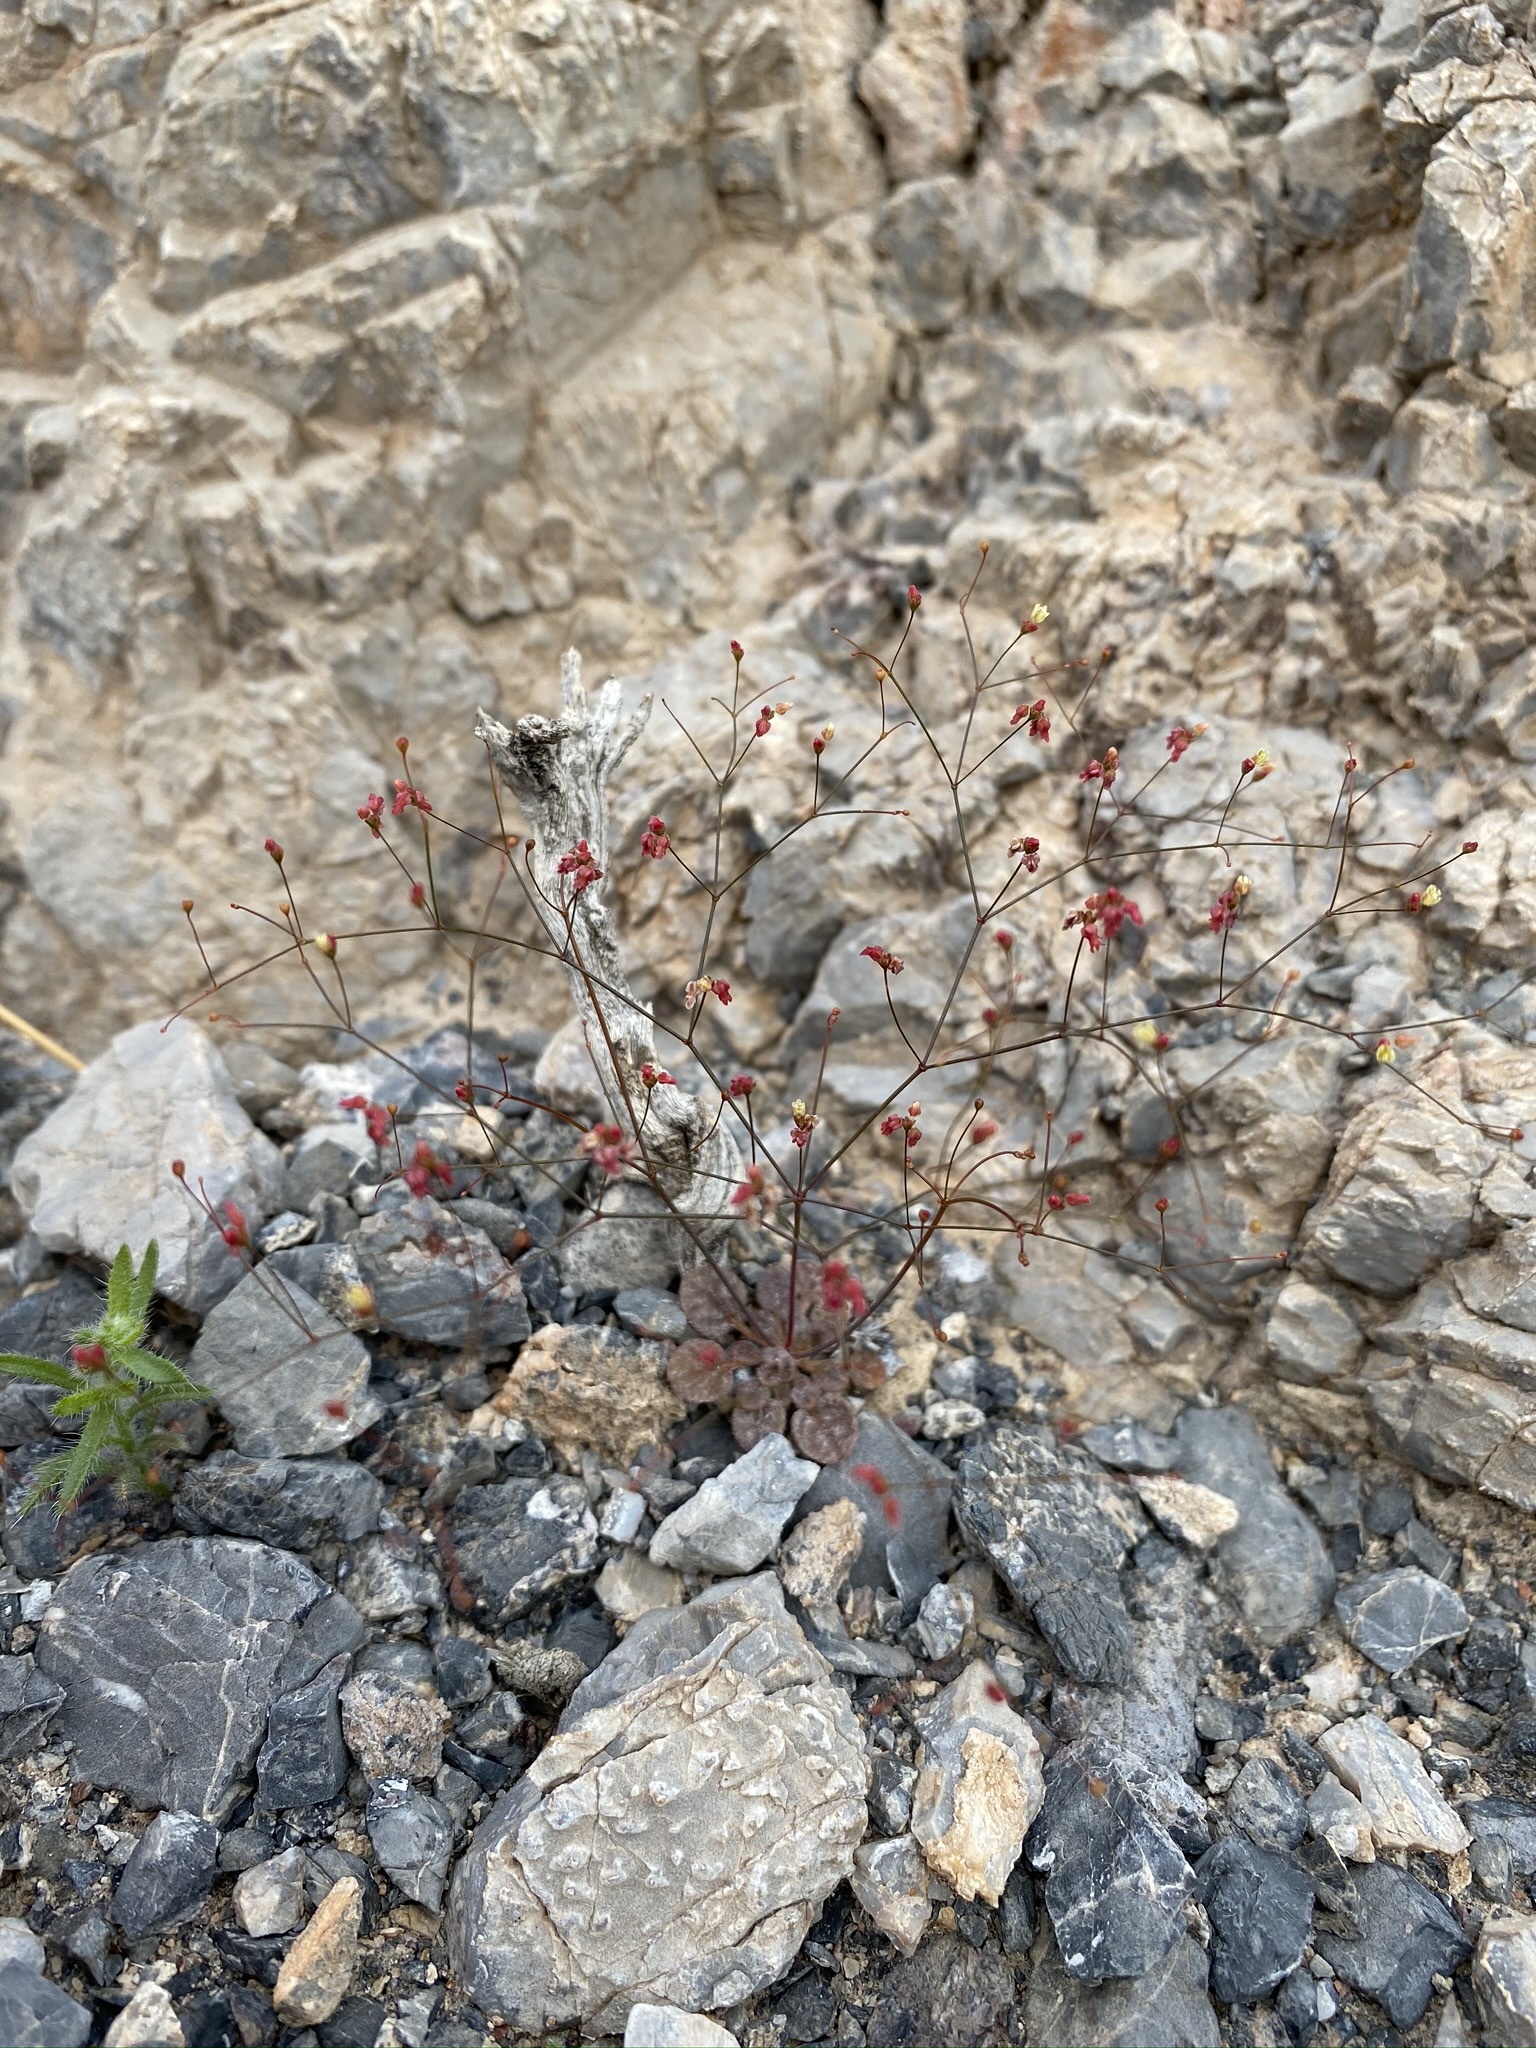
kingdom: Plantae
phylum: Tracheophyta
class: Magnoliopsida
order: Caryophyllales
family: Polygonaceae
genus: Eriogonum
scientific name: Eriogonum thomasii
